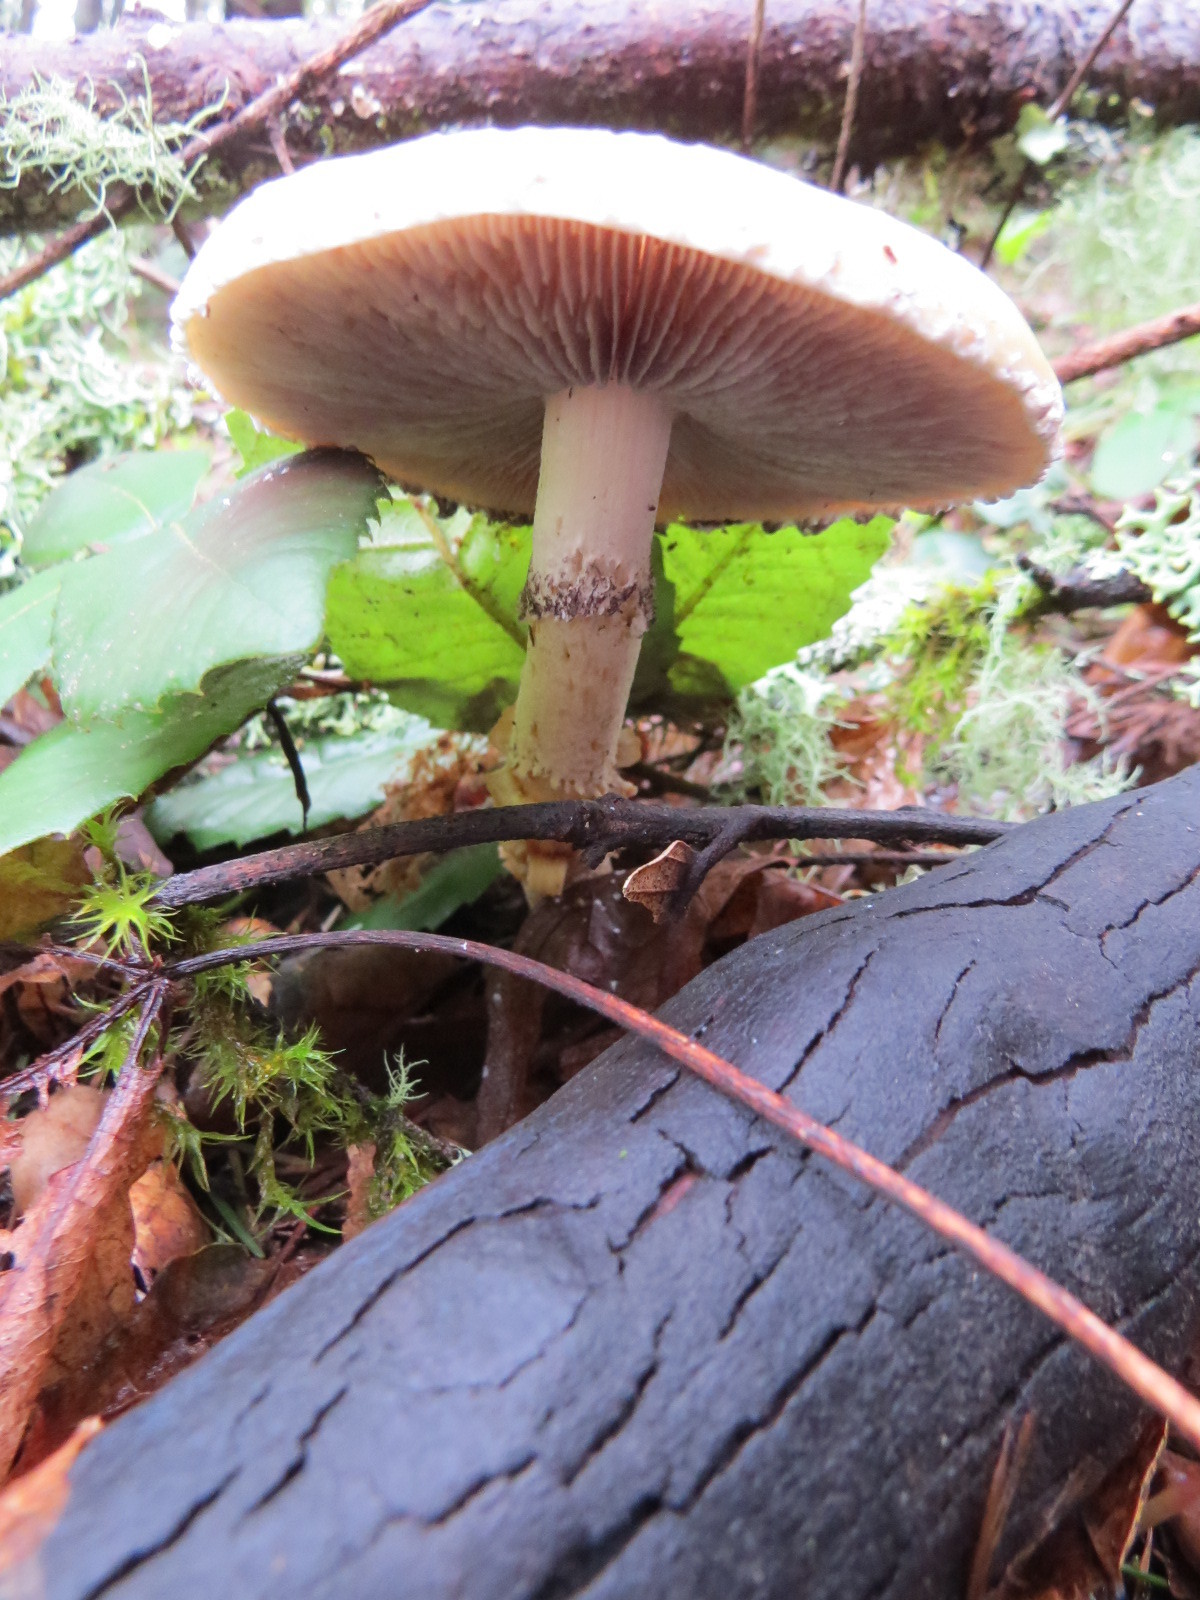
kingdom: Fungi
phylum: Basidiomycota
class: Agaricomycetes
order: Agaricales
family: Strophariaceae
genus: Stropharia
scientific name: Stropharia ambigua
